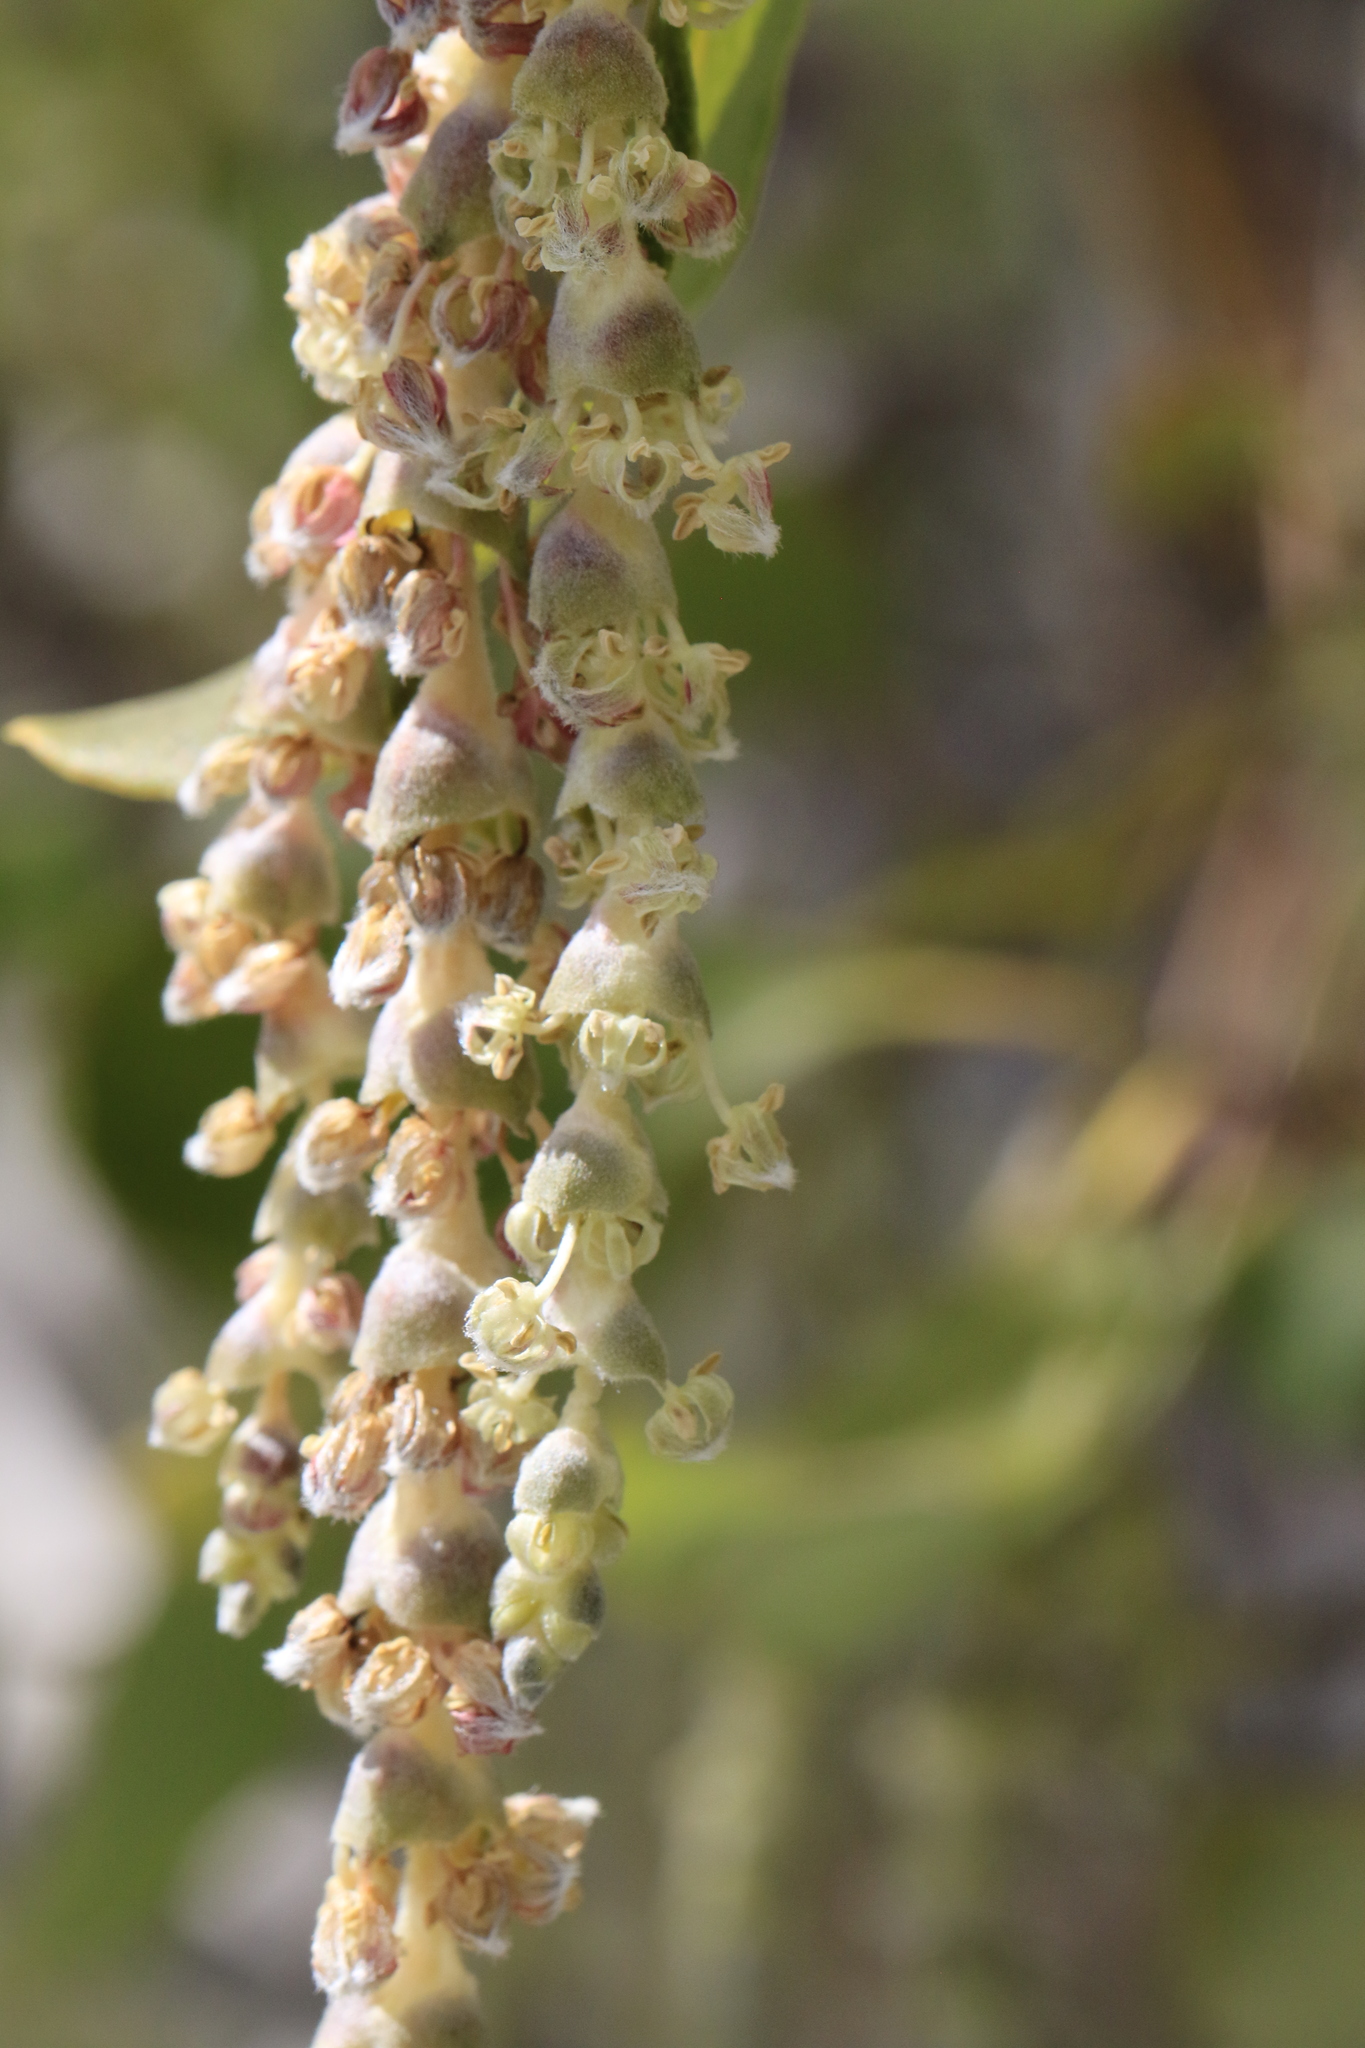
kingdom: Plantae
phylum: Tracheophyta
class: Magnoliopsida
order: Garryales
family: Garryaceae
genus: Garrya
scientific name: Garrya fremontii
